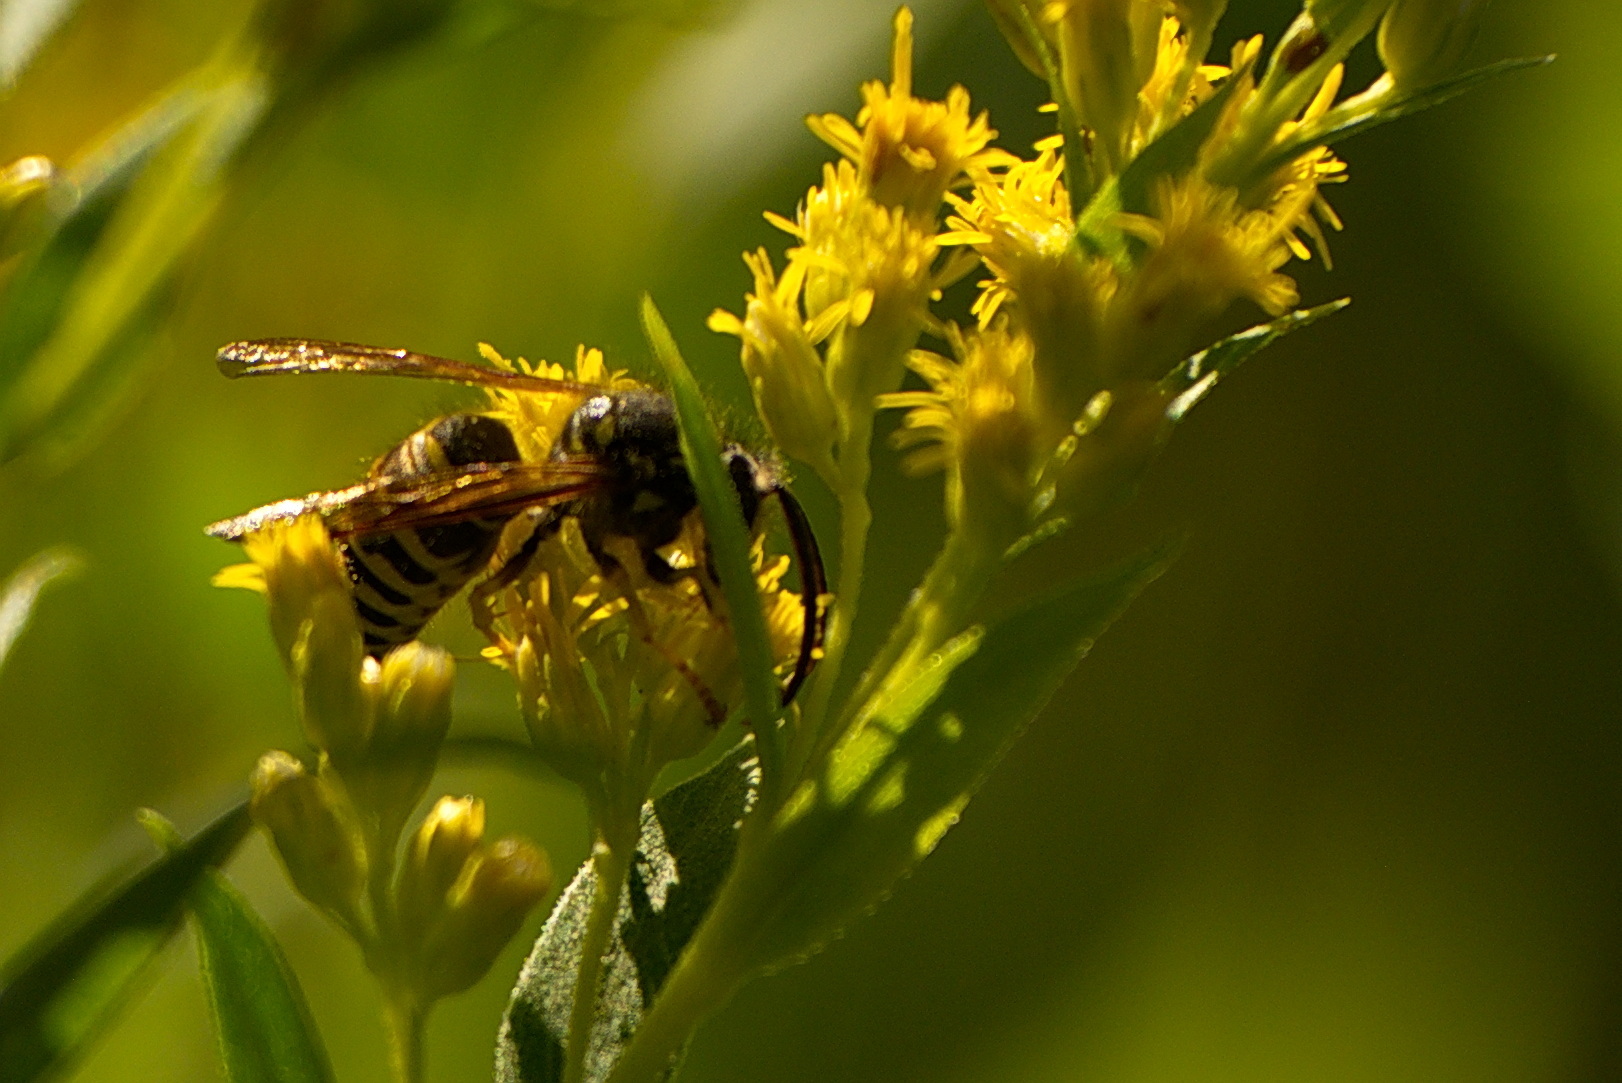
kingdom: Animalia
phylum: Arthropoda
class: Insecta
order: Hymenoptera
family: Vespidae
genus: Dolichovespula
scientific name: Dolichovespula arenaria
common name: Aerial yellowjacket
